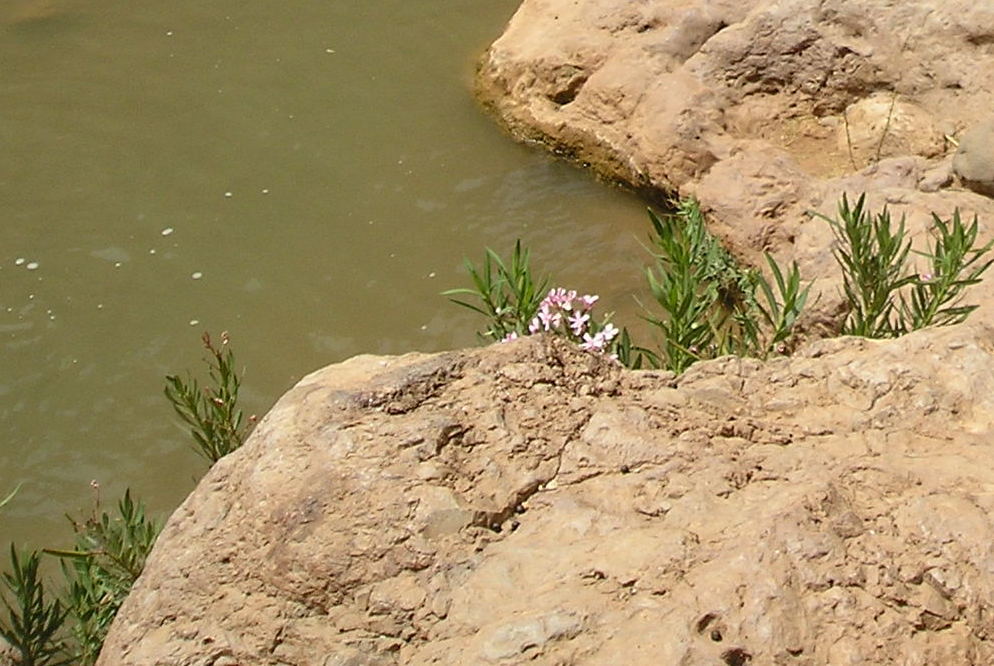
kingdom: Plantae
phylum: Tracheophyta
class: Magnoliopsida
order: Gentianales
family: Apocynaceae
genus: Nerium
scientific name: Nerium oleander
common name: Oleander
